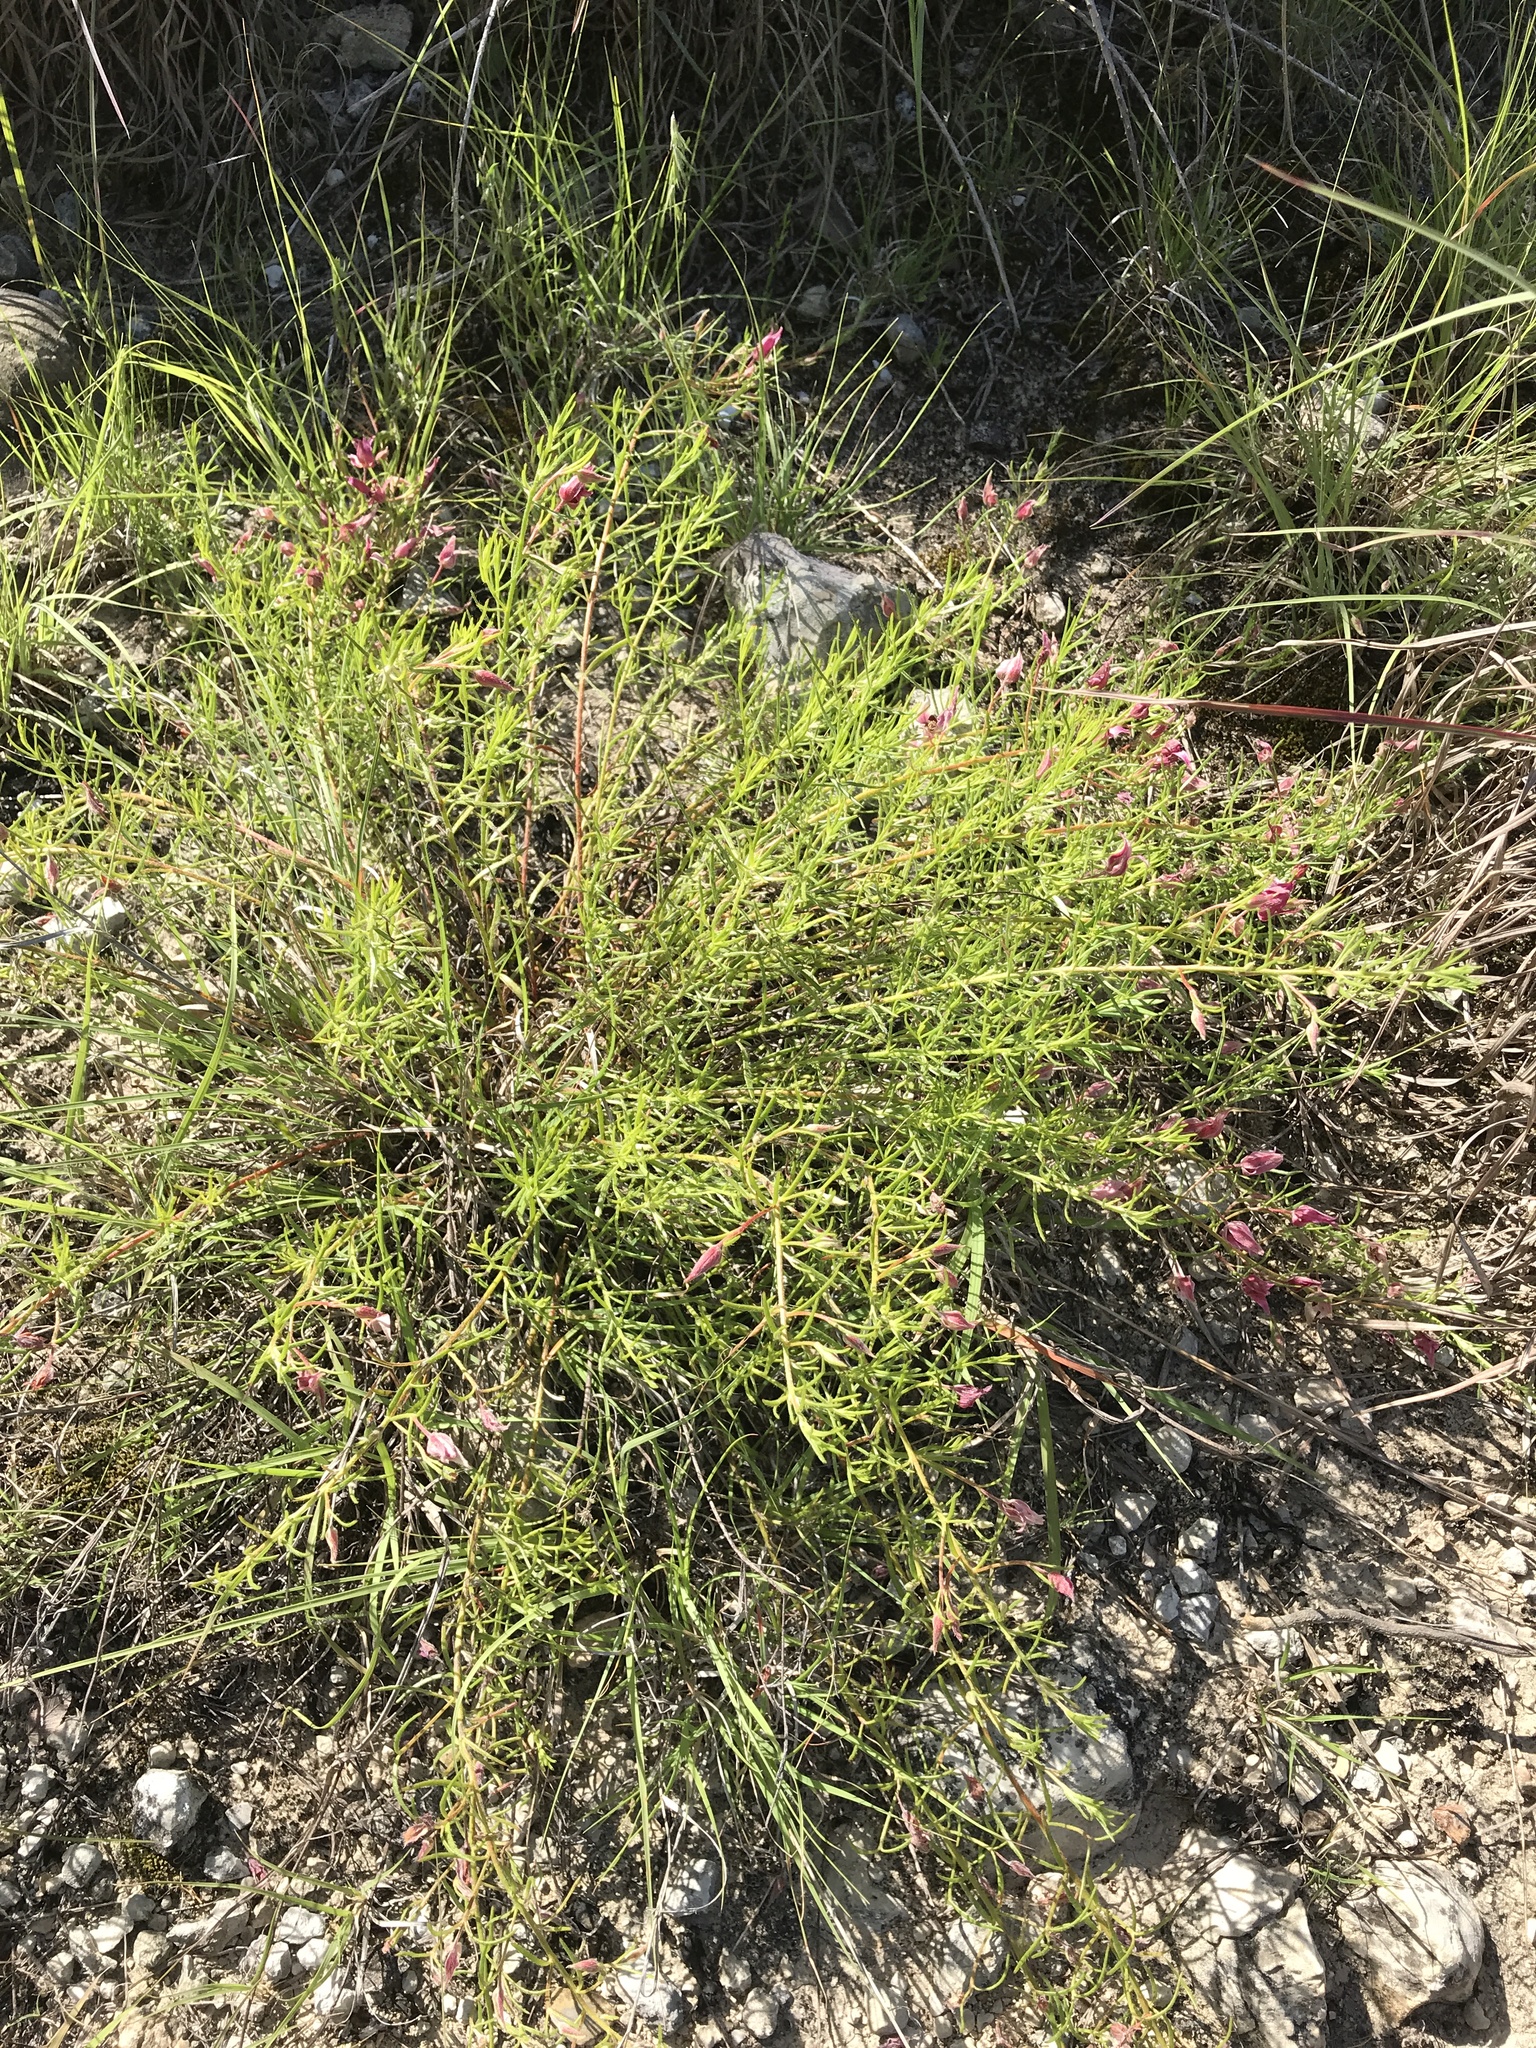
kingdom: Plantae
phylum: Tracheophyta
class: Magnoliopsida
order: Zygophyllales
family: Krameriaceae
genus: Krameria
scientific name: Krameria lanceolata
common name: Ratany
